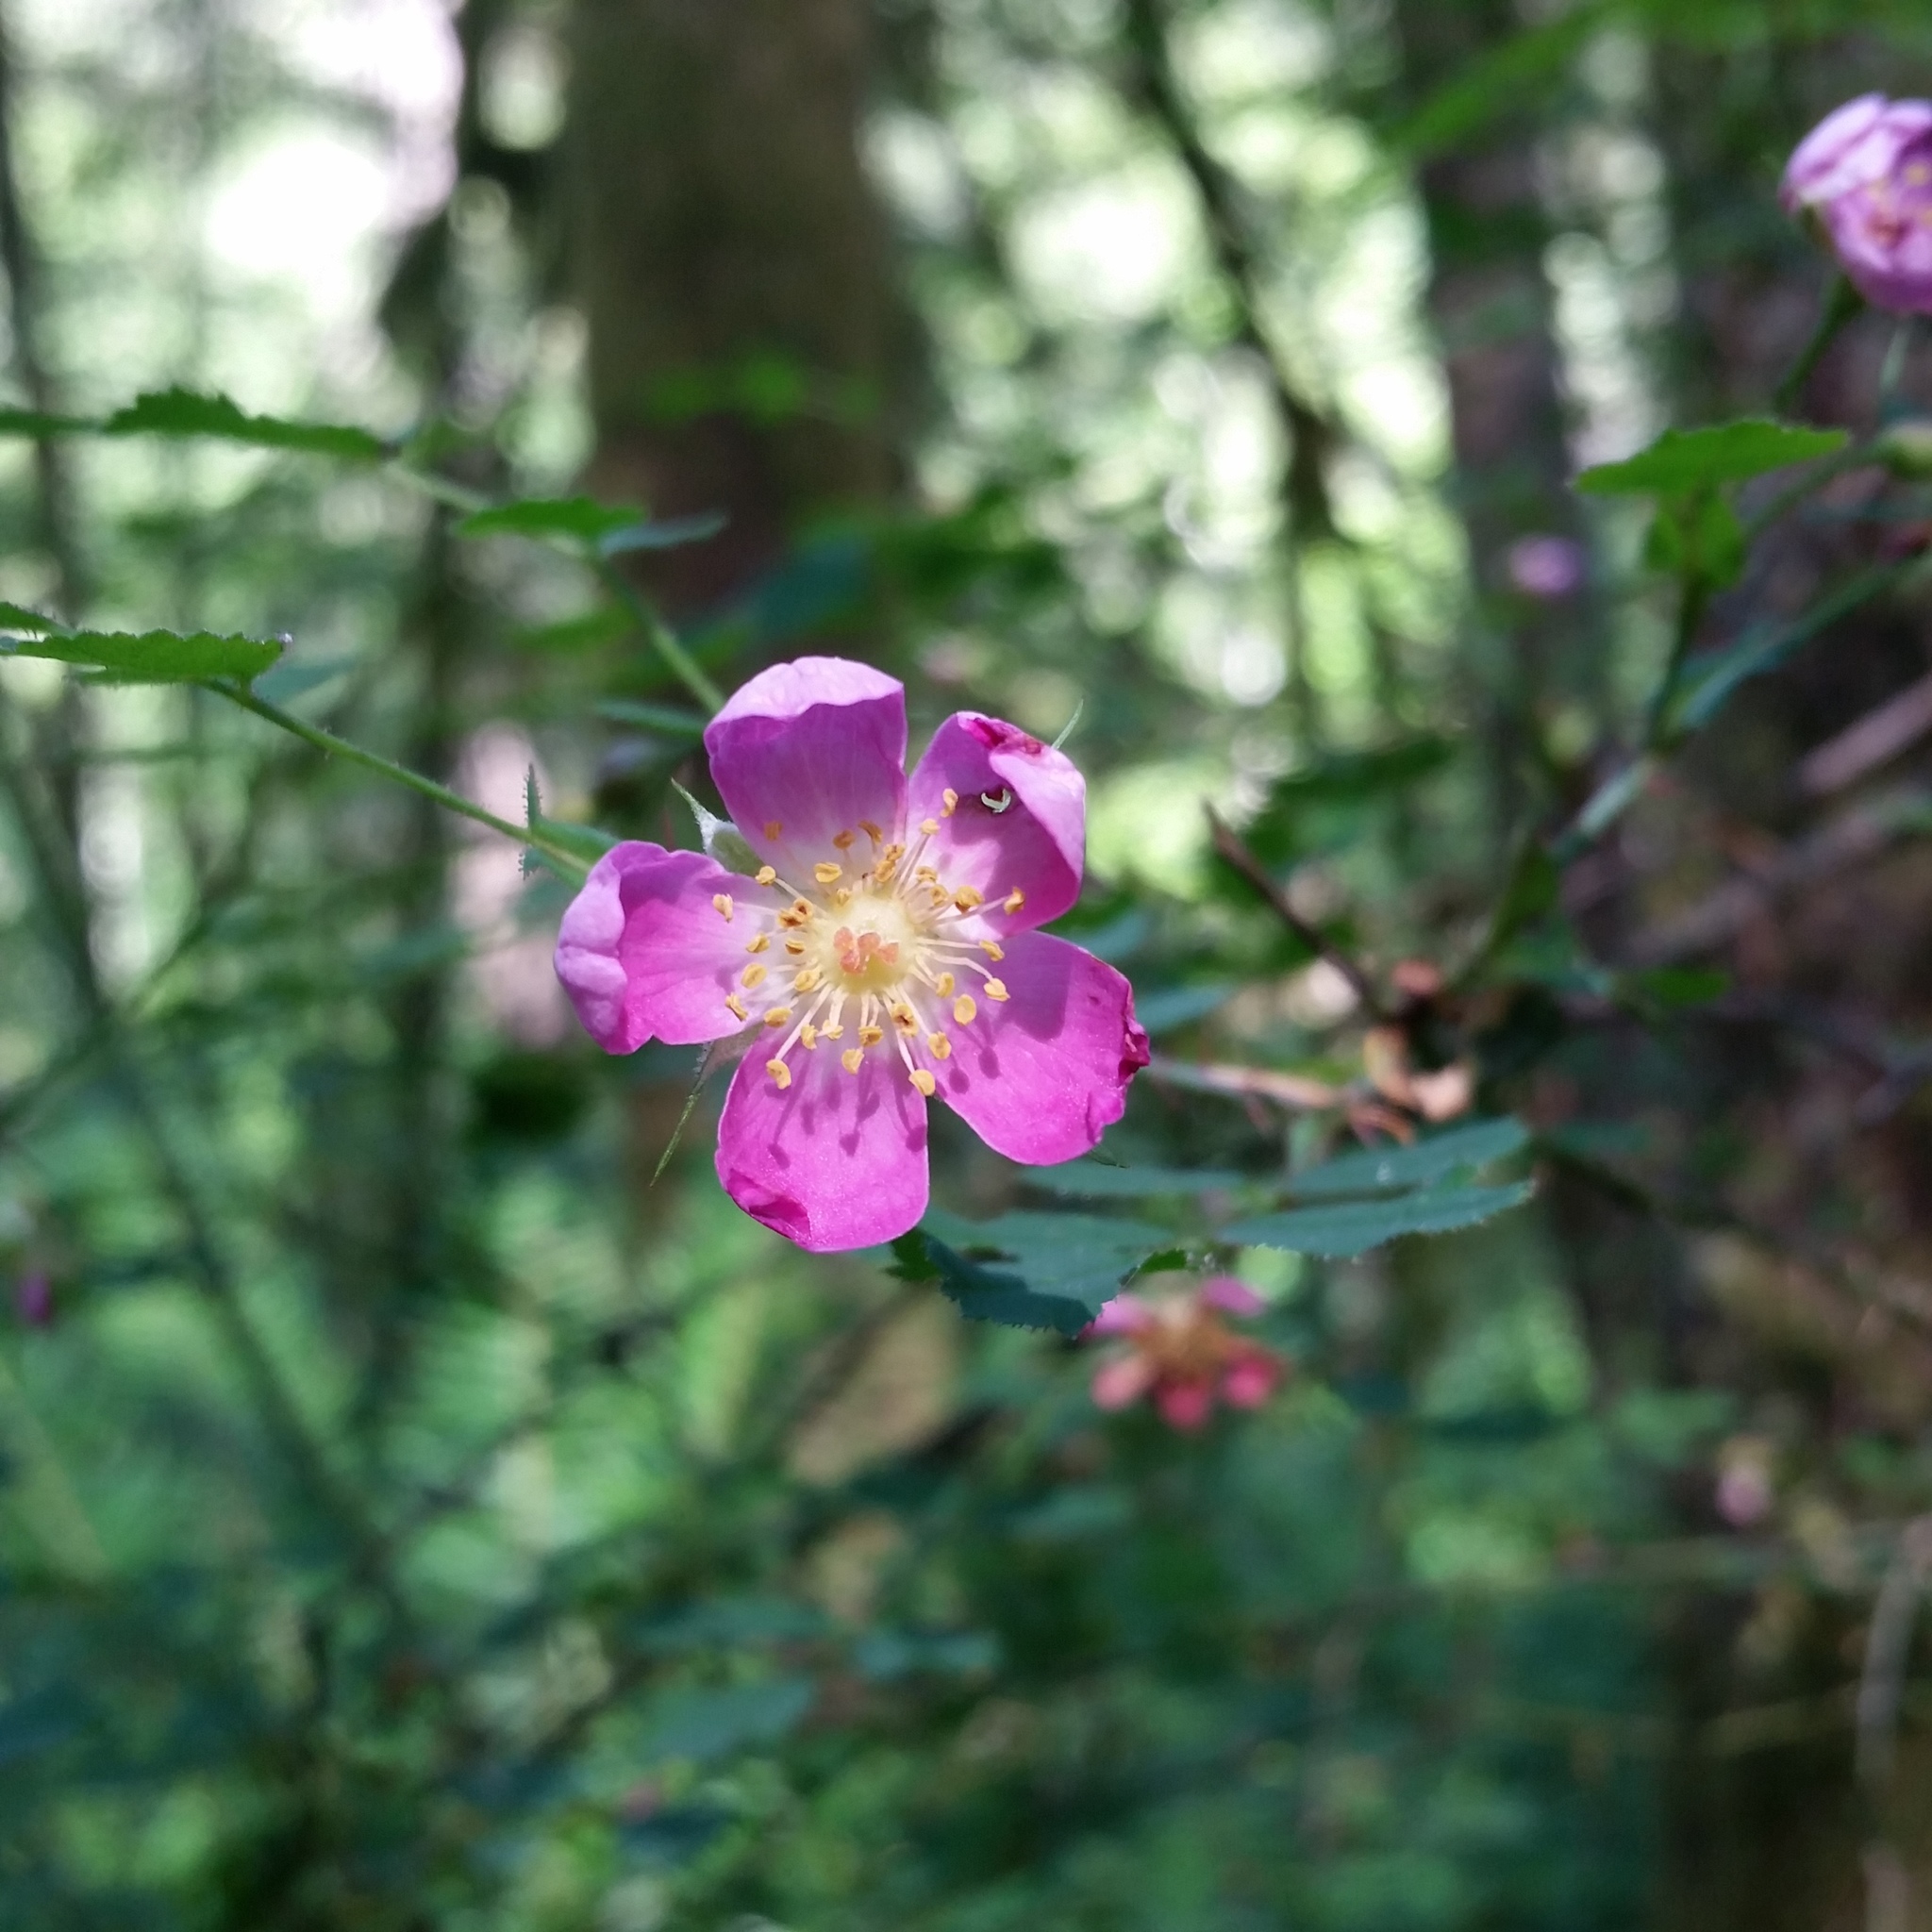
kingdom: Plantae
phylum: Tracheophyta
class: Magnoliopsida
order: Rosales
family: Rosaceae
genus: Rosa
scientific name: Rosa nutkana
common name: Nootka rose
